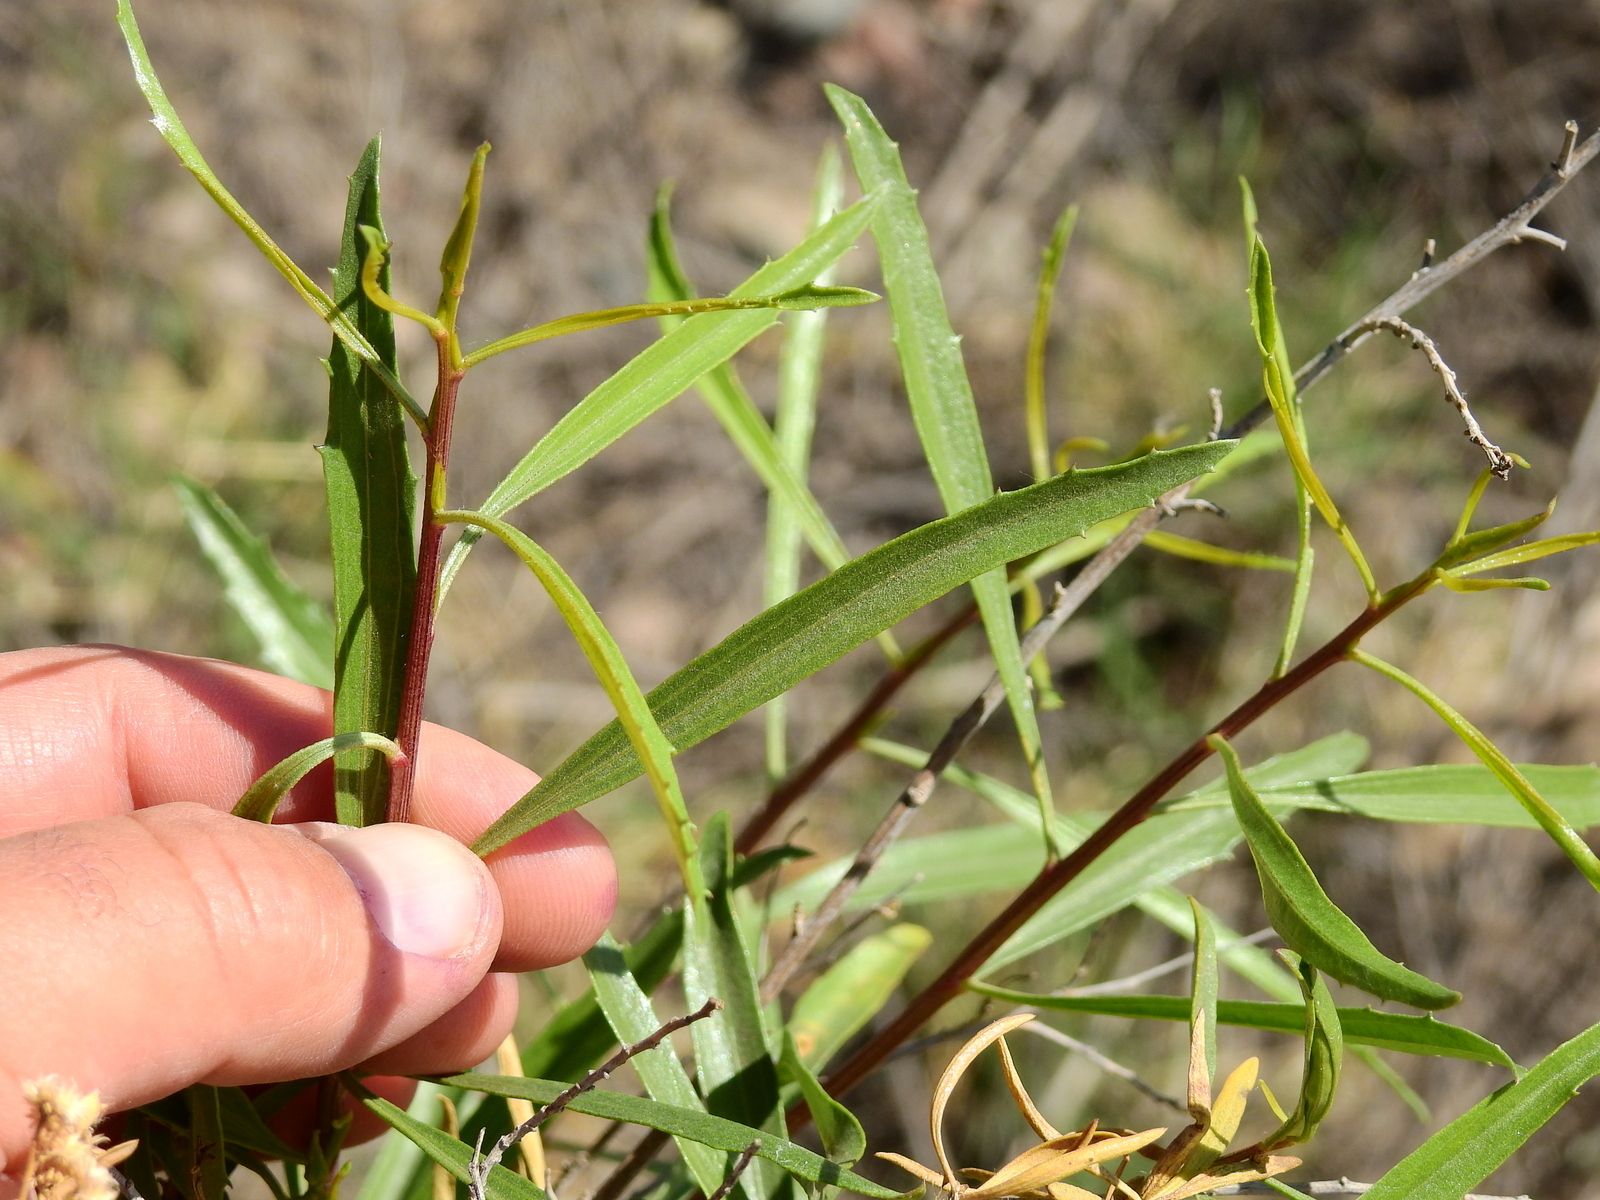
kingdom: Plantae
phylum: Tracheophyta
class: Magnoliopsida
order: Asterales
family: Asteraceae
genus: Baccharis
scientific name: Baccharis salicifolia
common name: Sticky baccharis
